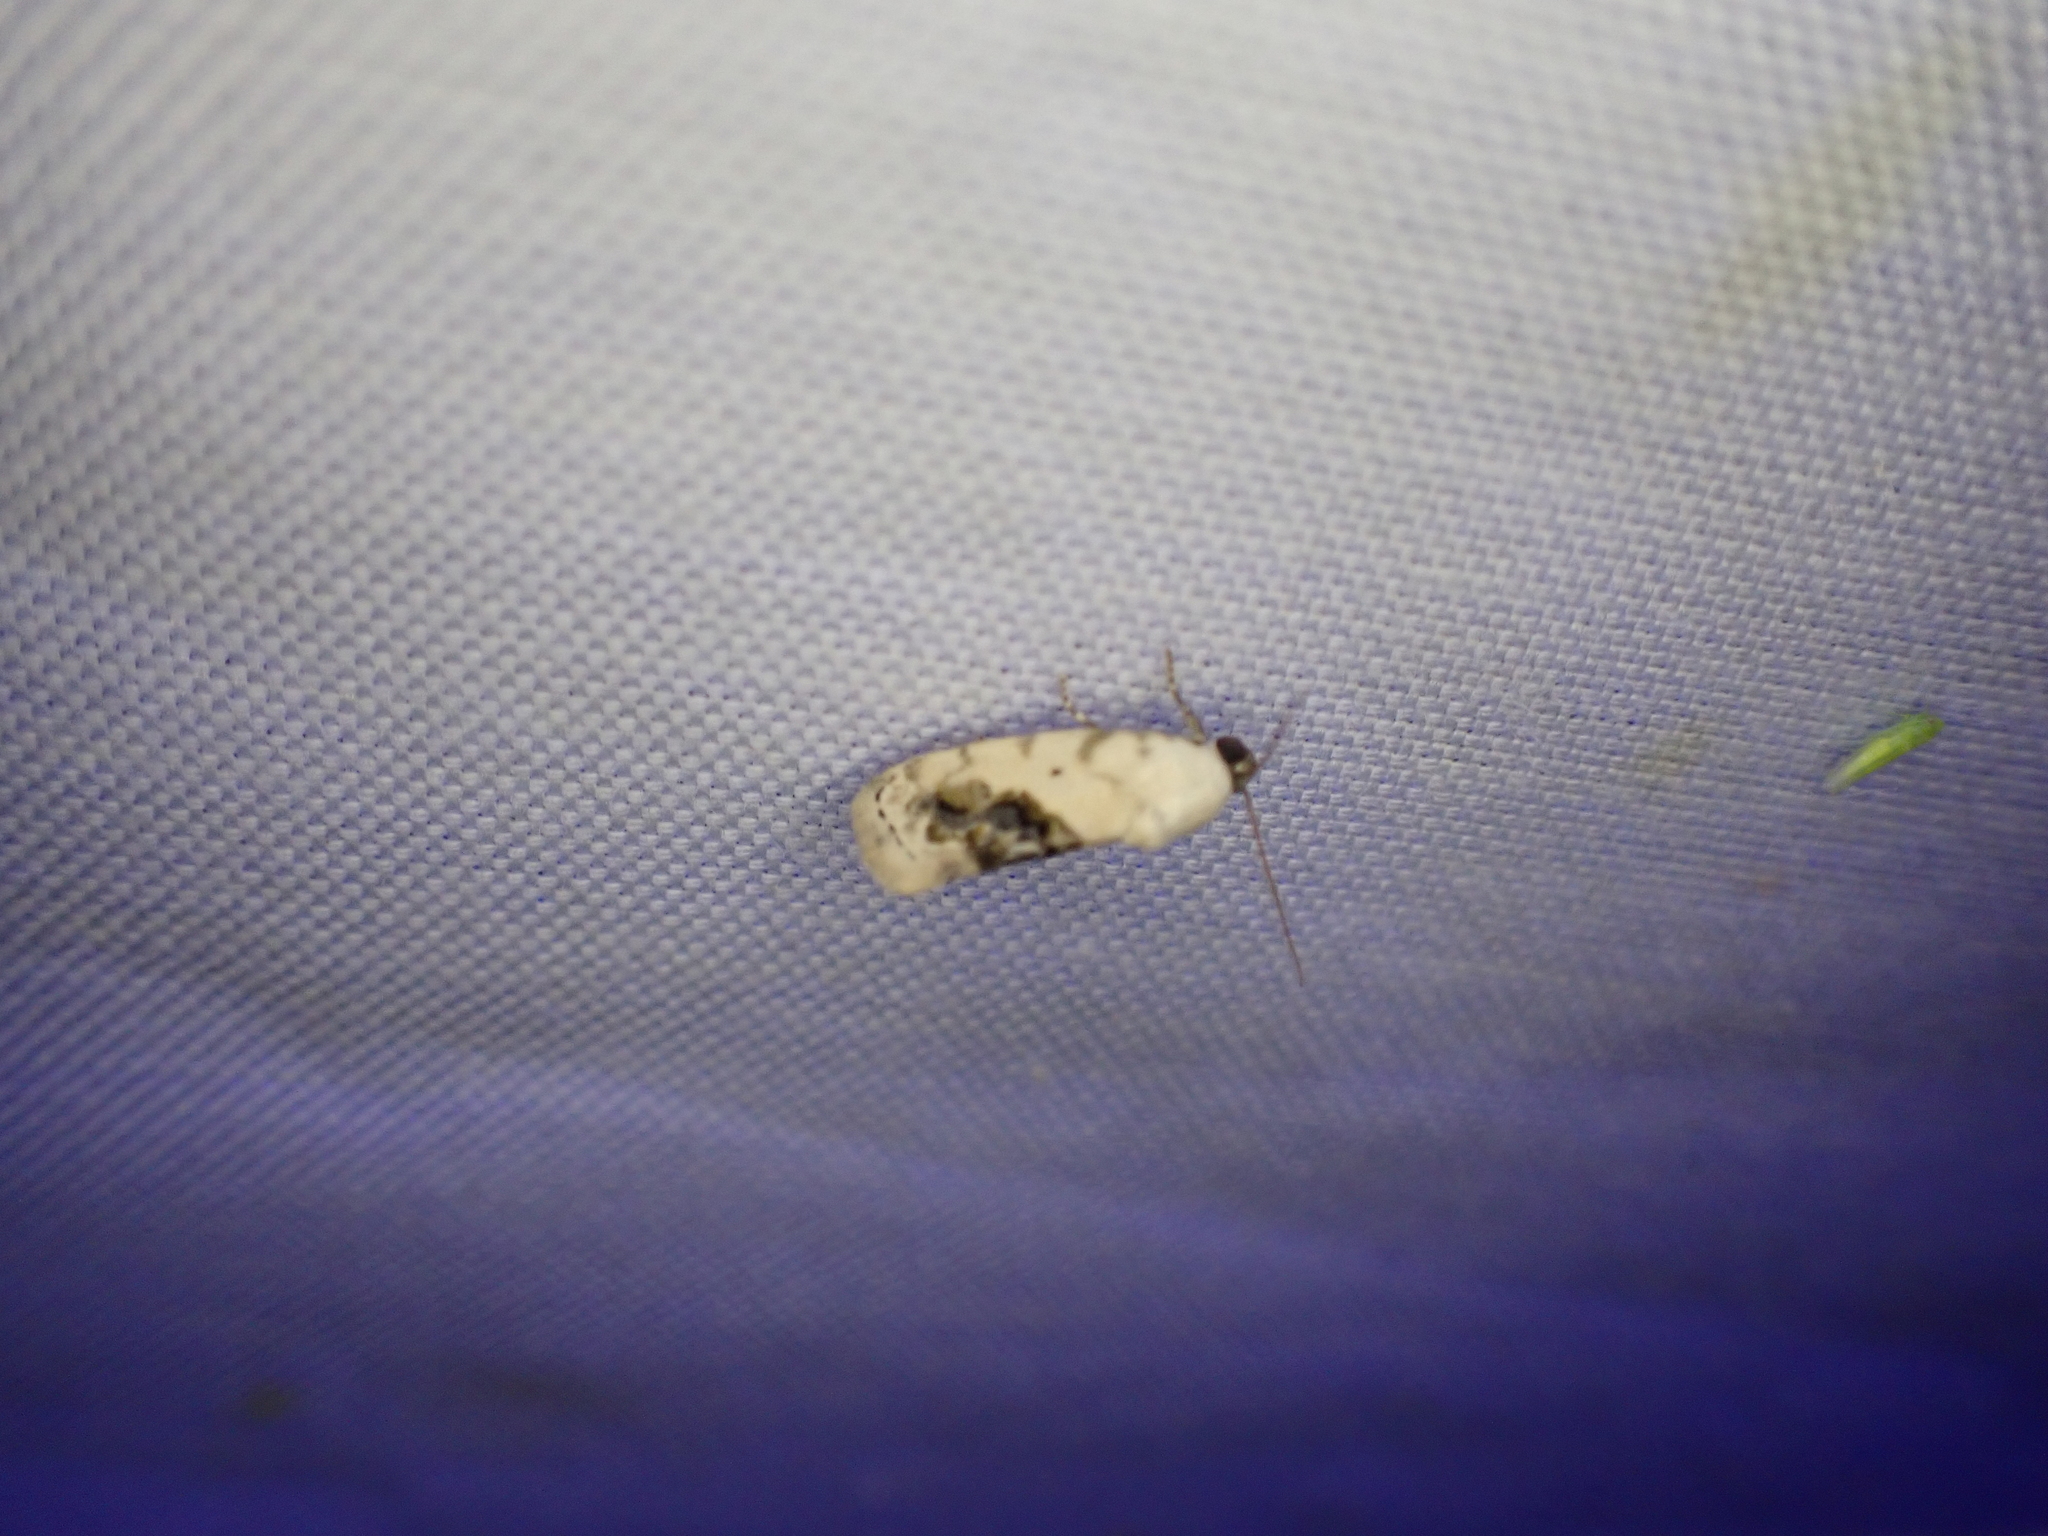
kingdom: Animalia
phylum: Arthropoda
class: Insecta
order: Lepidoptera
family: Noctuidae
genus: Acontia
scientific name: Acontia erastrioides
